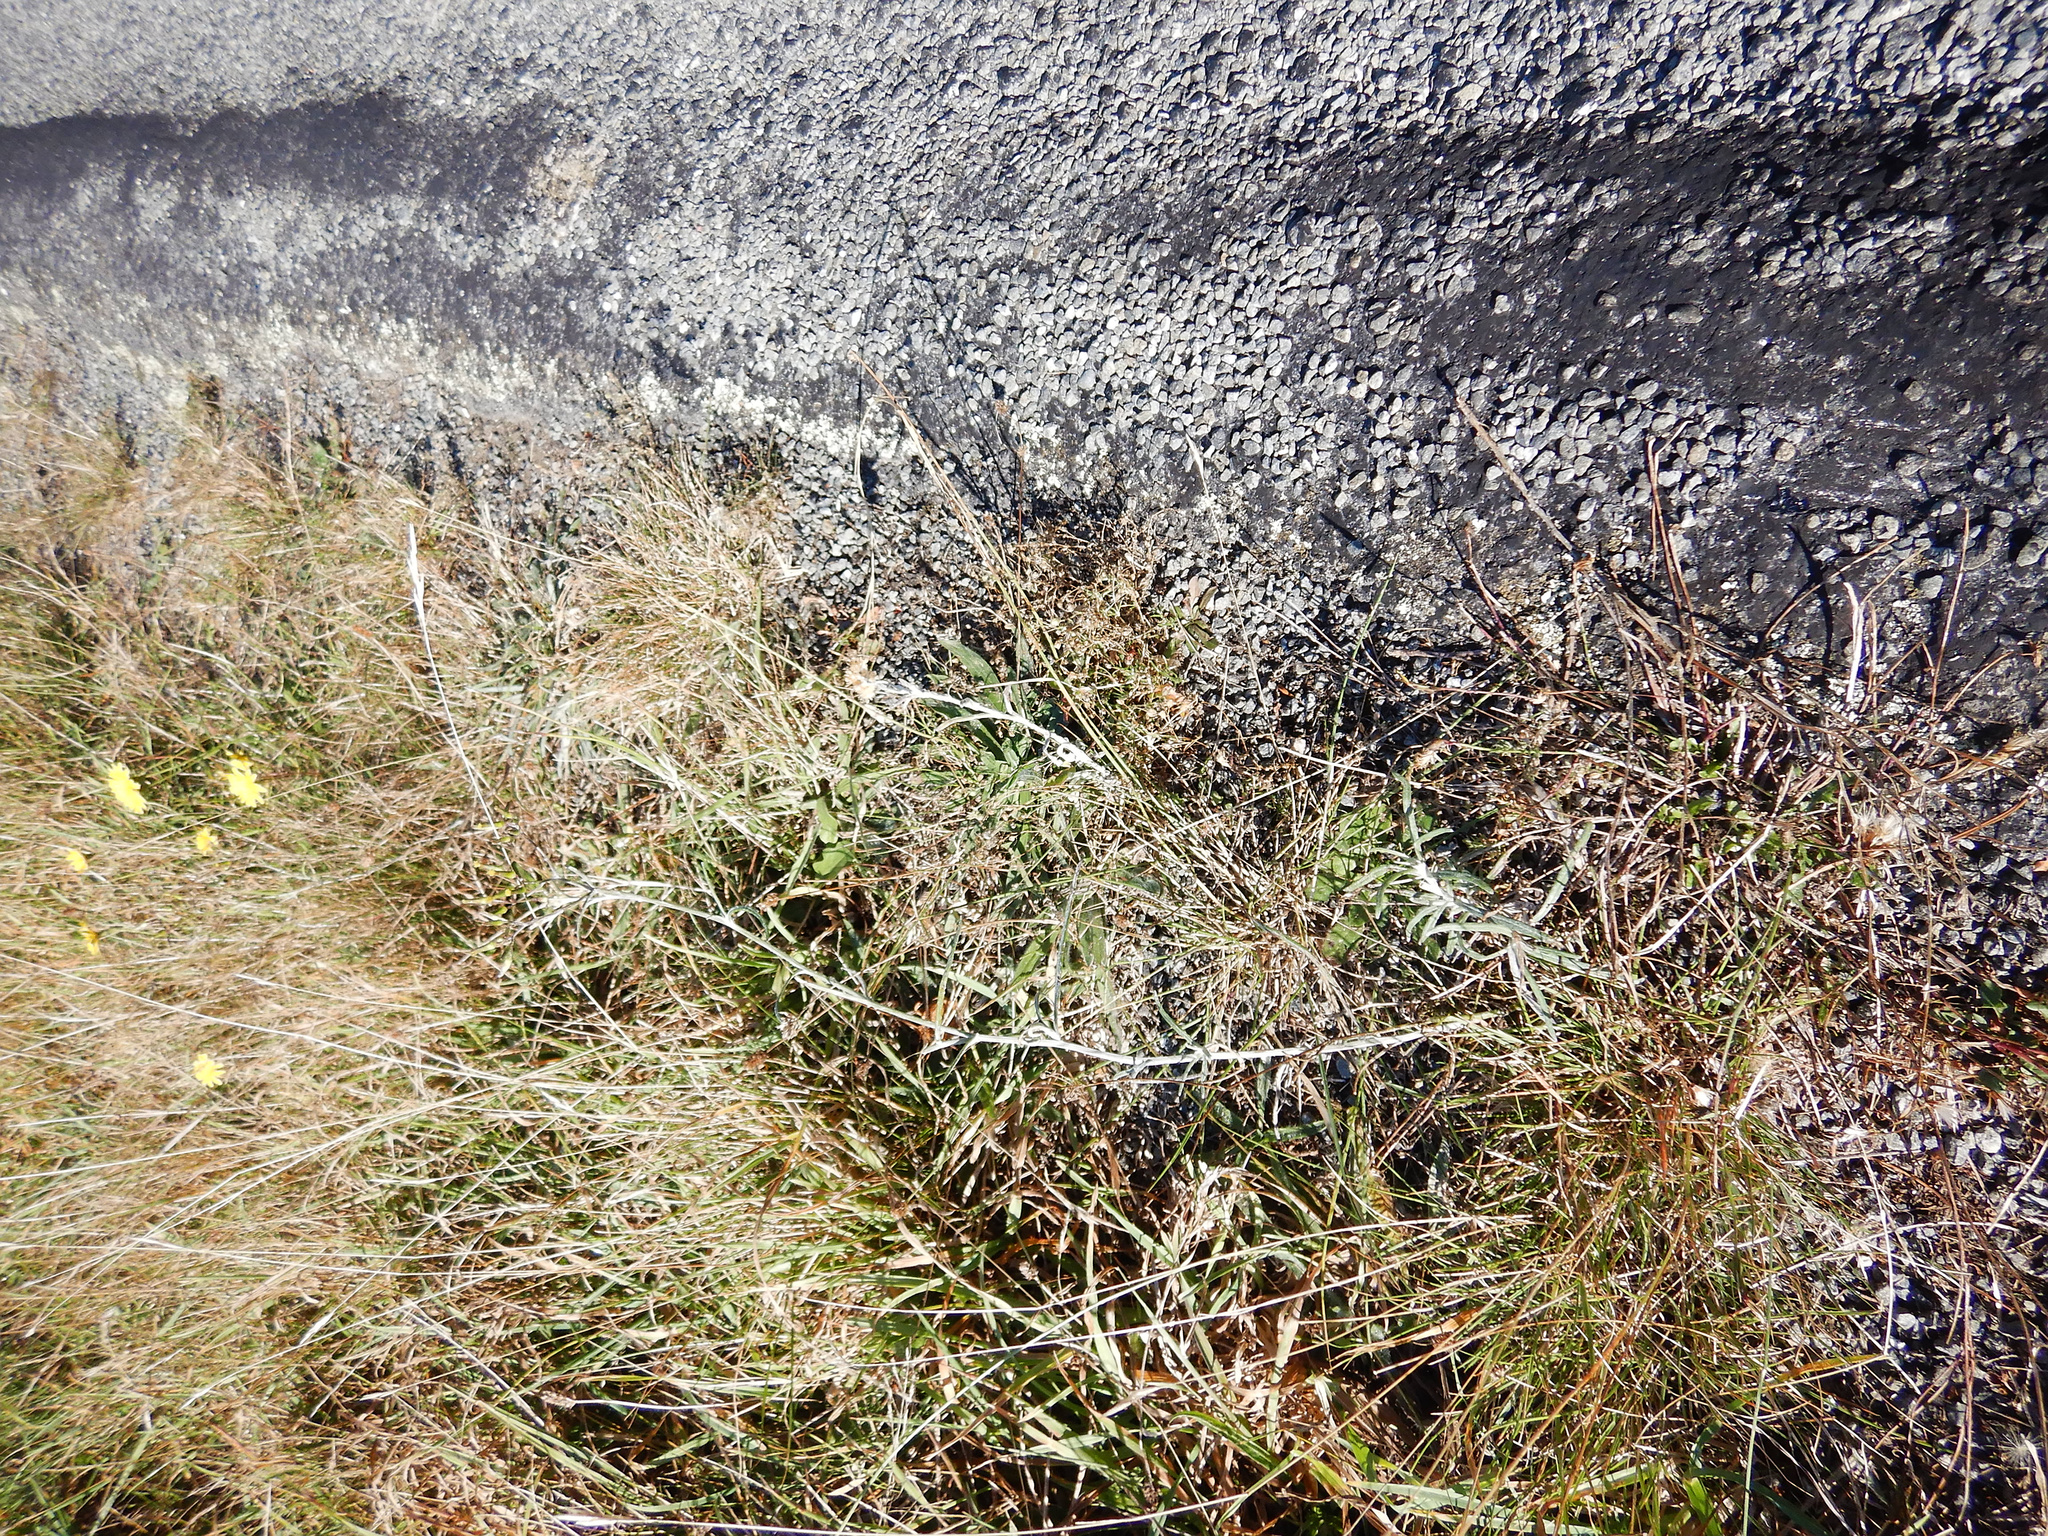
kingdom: Plantae
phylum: Tracheophyta
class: Magnoliopsida
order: Asterales
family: Asteraceae
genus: Senecio
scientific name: Senecio quadridentatus
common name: Cotton fireweed
